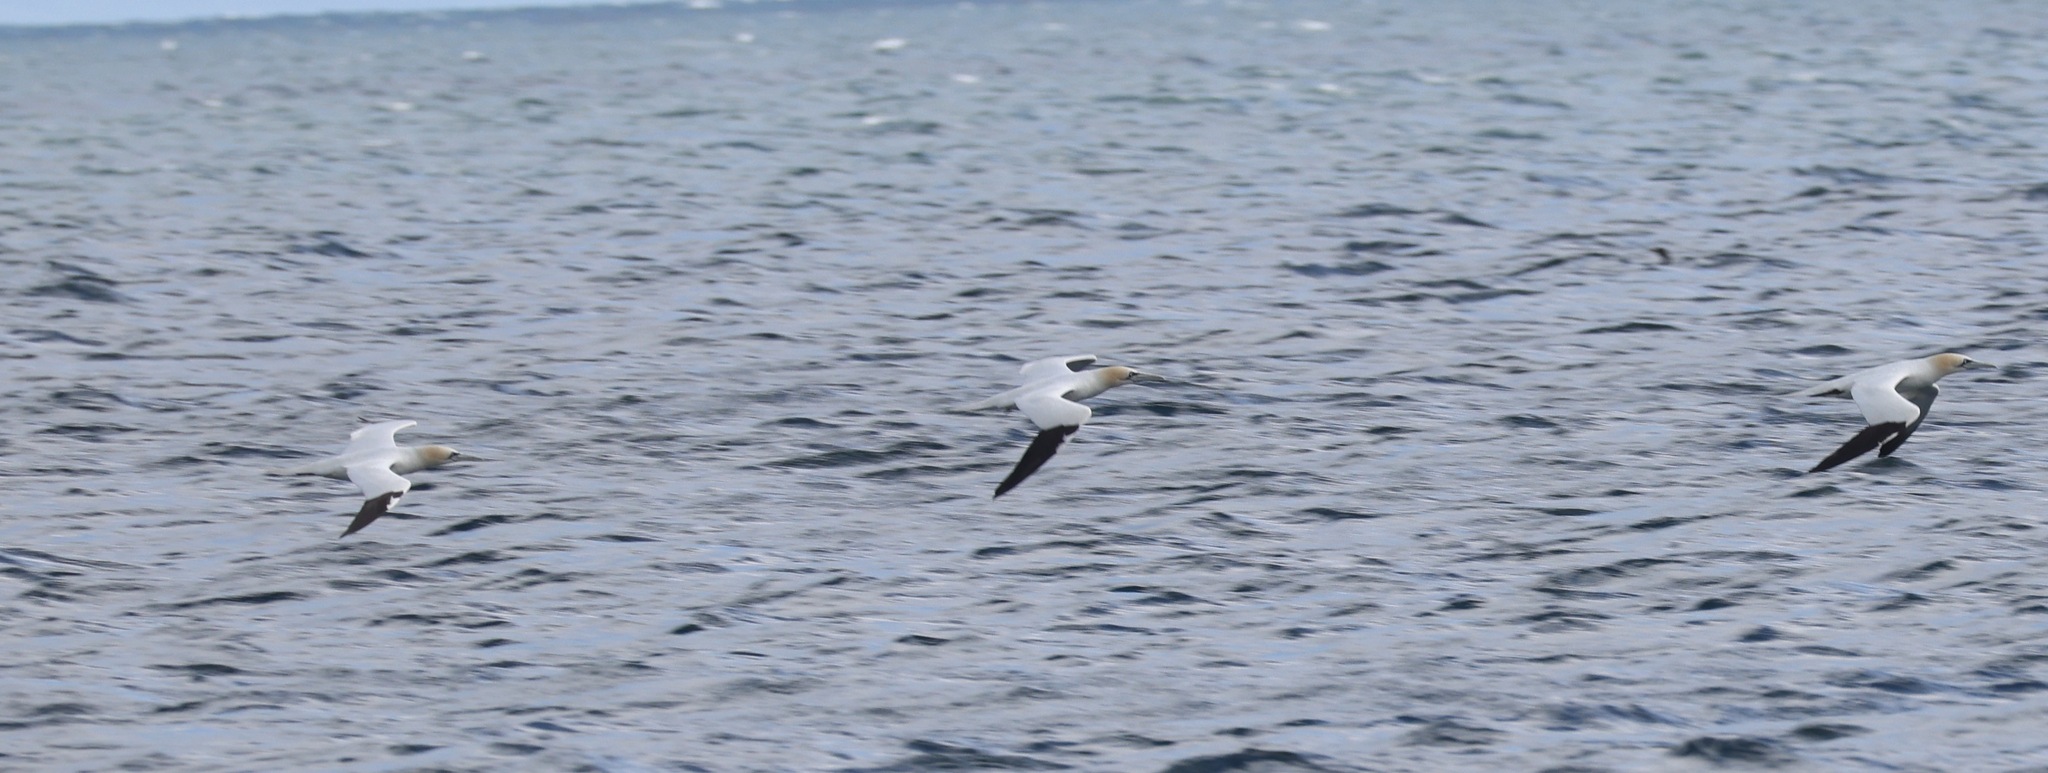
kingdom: Animalia
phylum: Chordata
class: Aves
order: Suliformes
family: Sulidae
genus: Morus
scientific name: Morus bassanus
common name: Northern gannet
